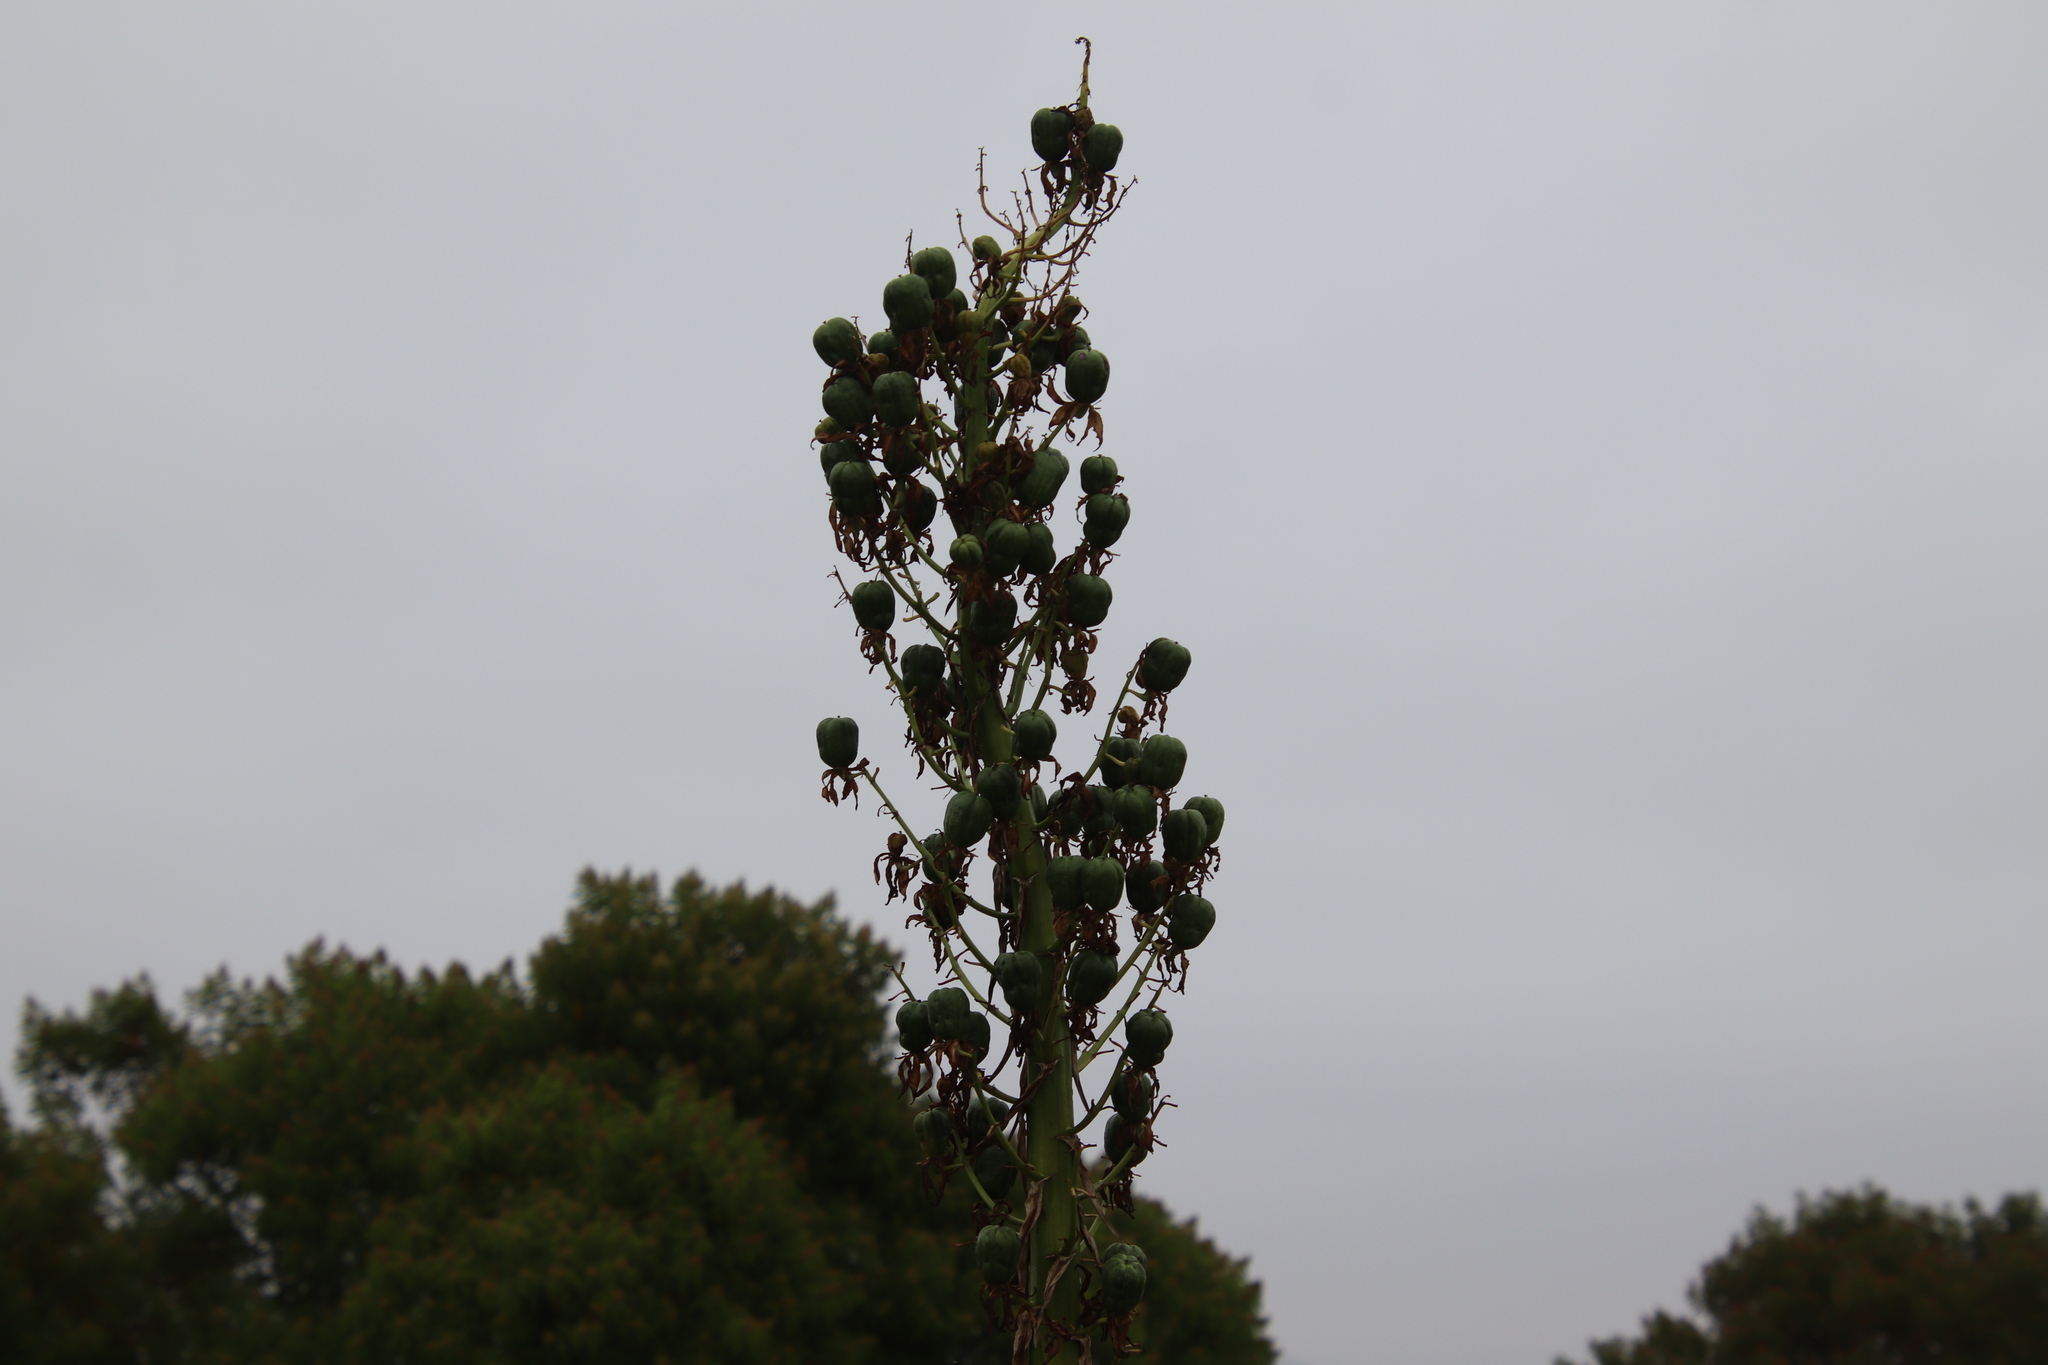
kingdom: Plantae
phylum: Tracheophyta
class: Liliopsida
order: Asparagales
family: Asparagaceae
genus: Hesperoyucca
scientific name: Hesperoyucca whipplei
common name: Our lord's-candle
